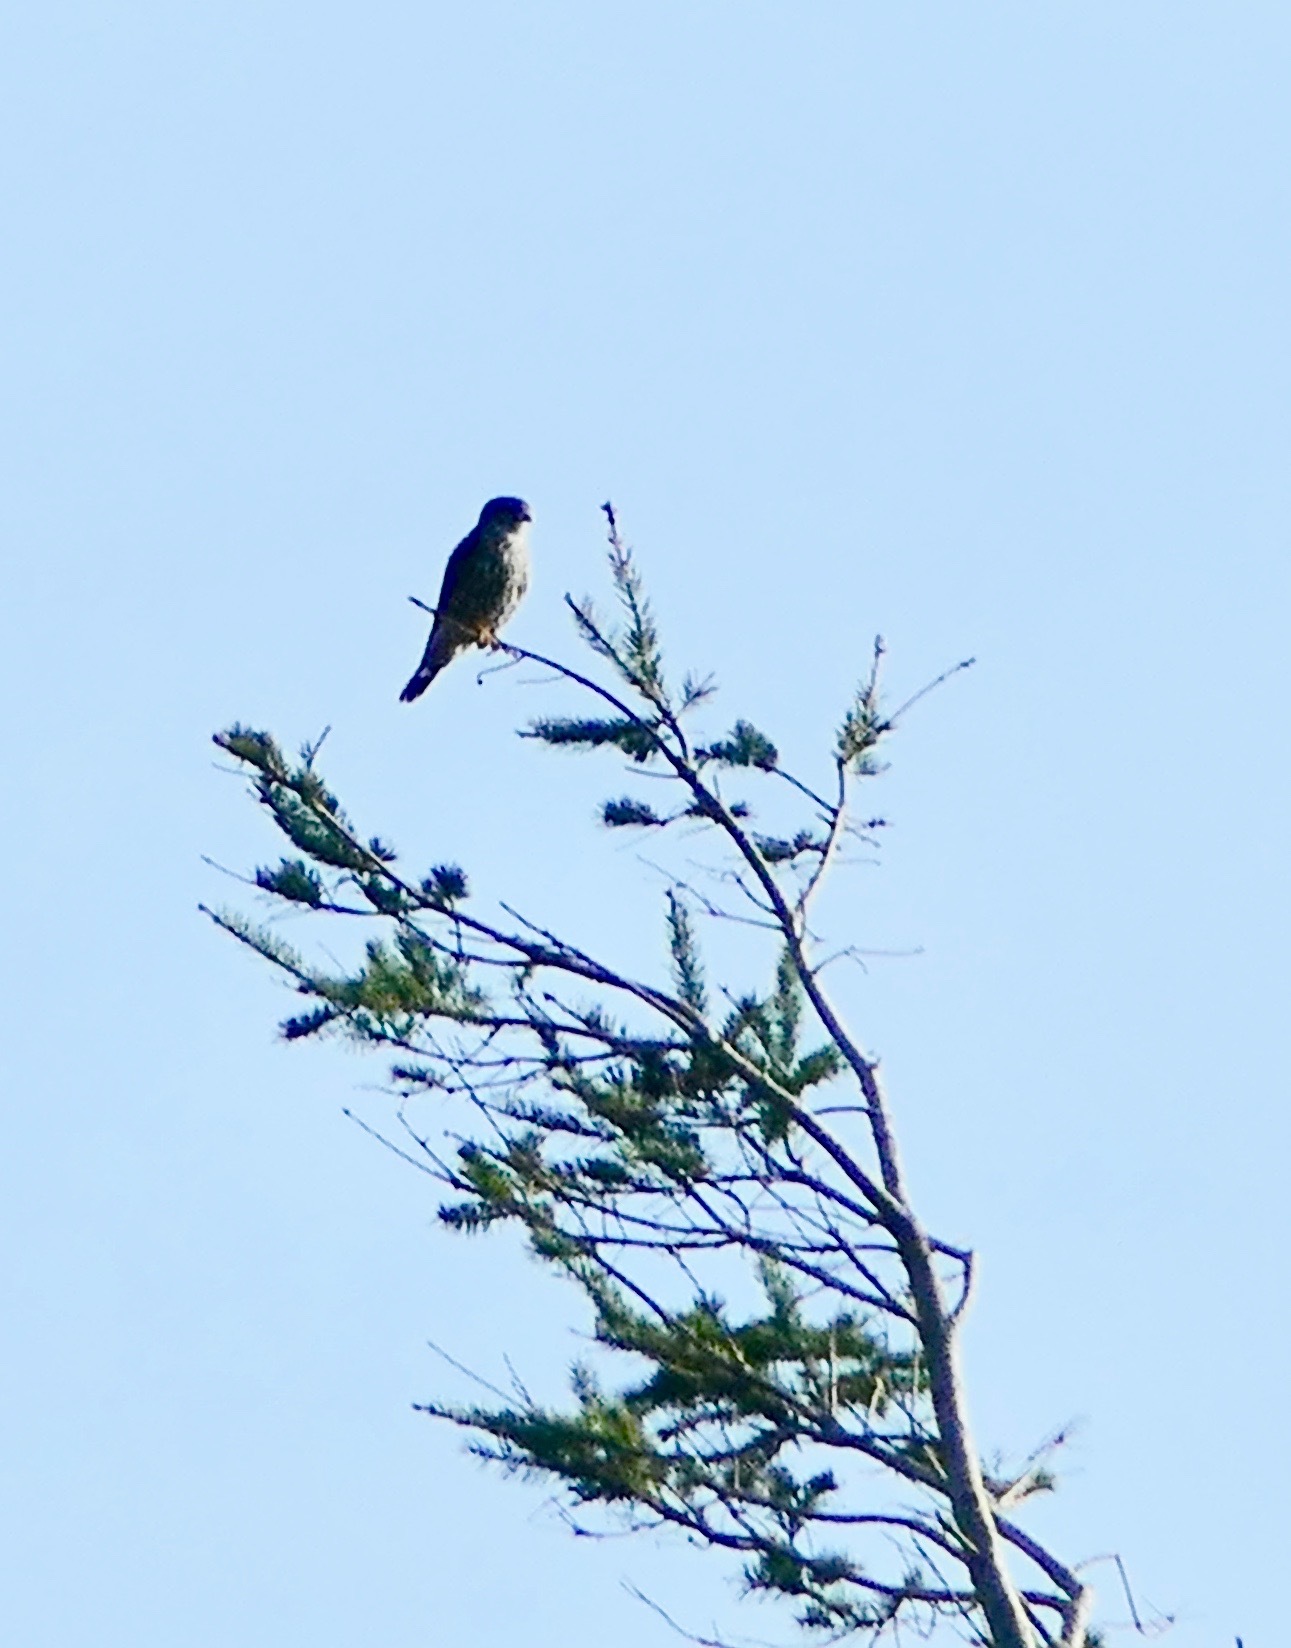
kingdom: Animalia
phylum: Chordata
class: Aves
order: Falconiformes
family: Falconidae
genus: Falco
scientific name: Falco columbarius
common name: Merlin
